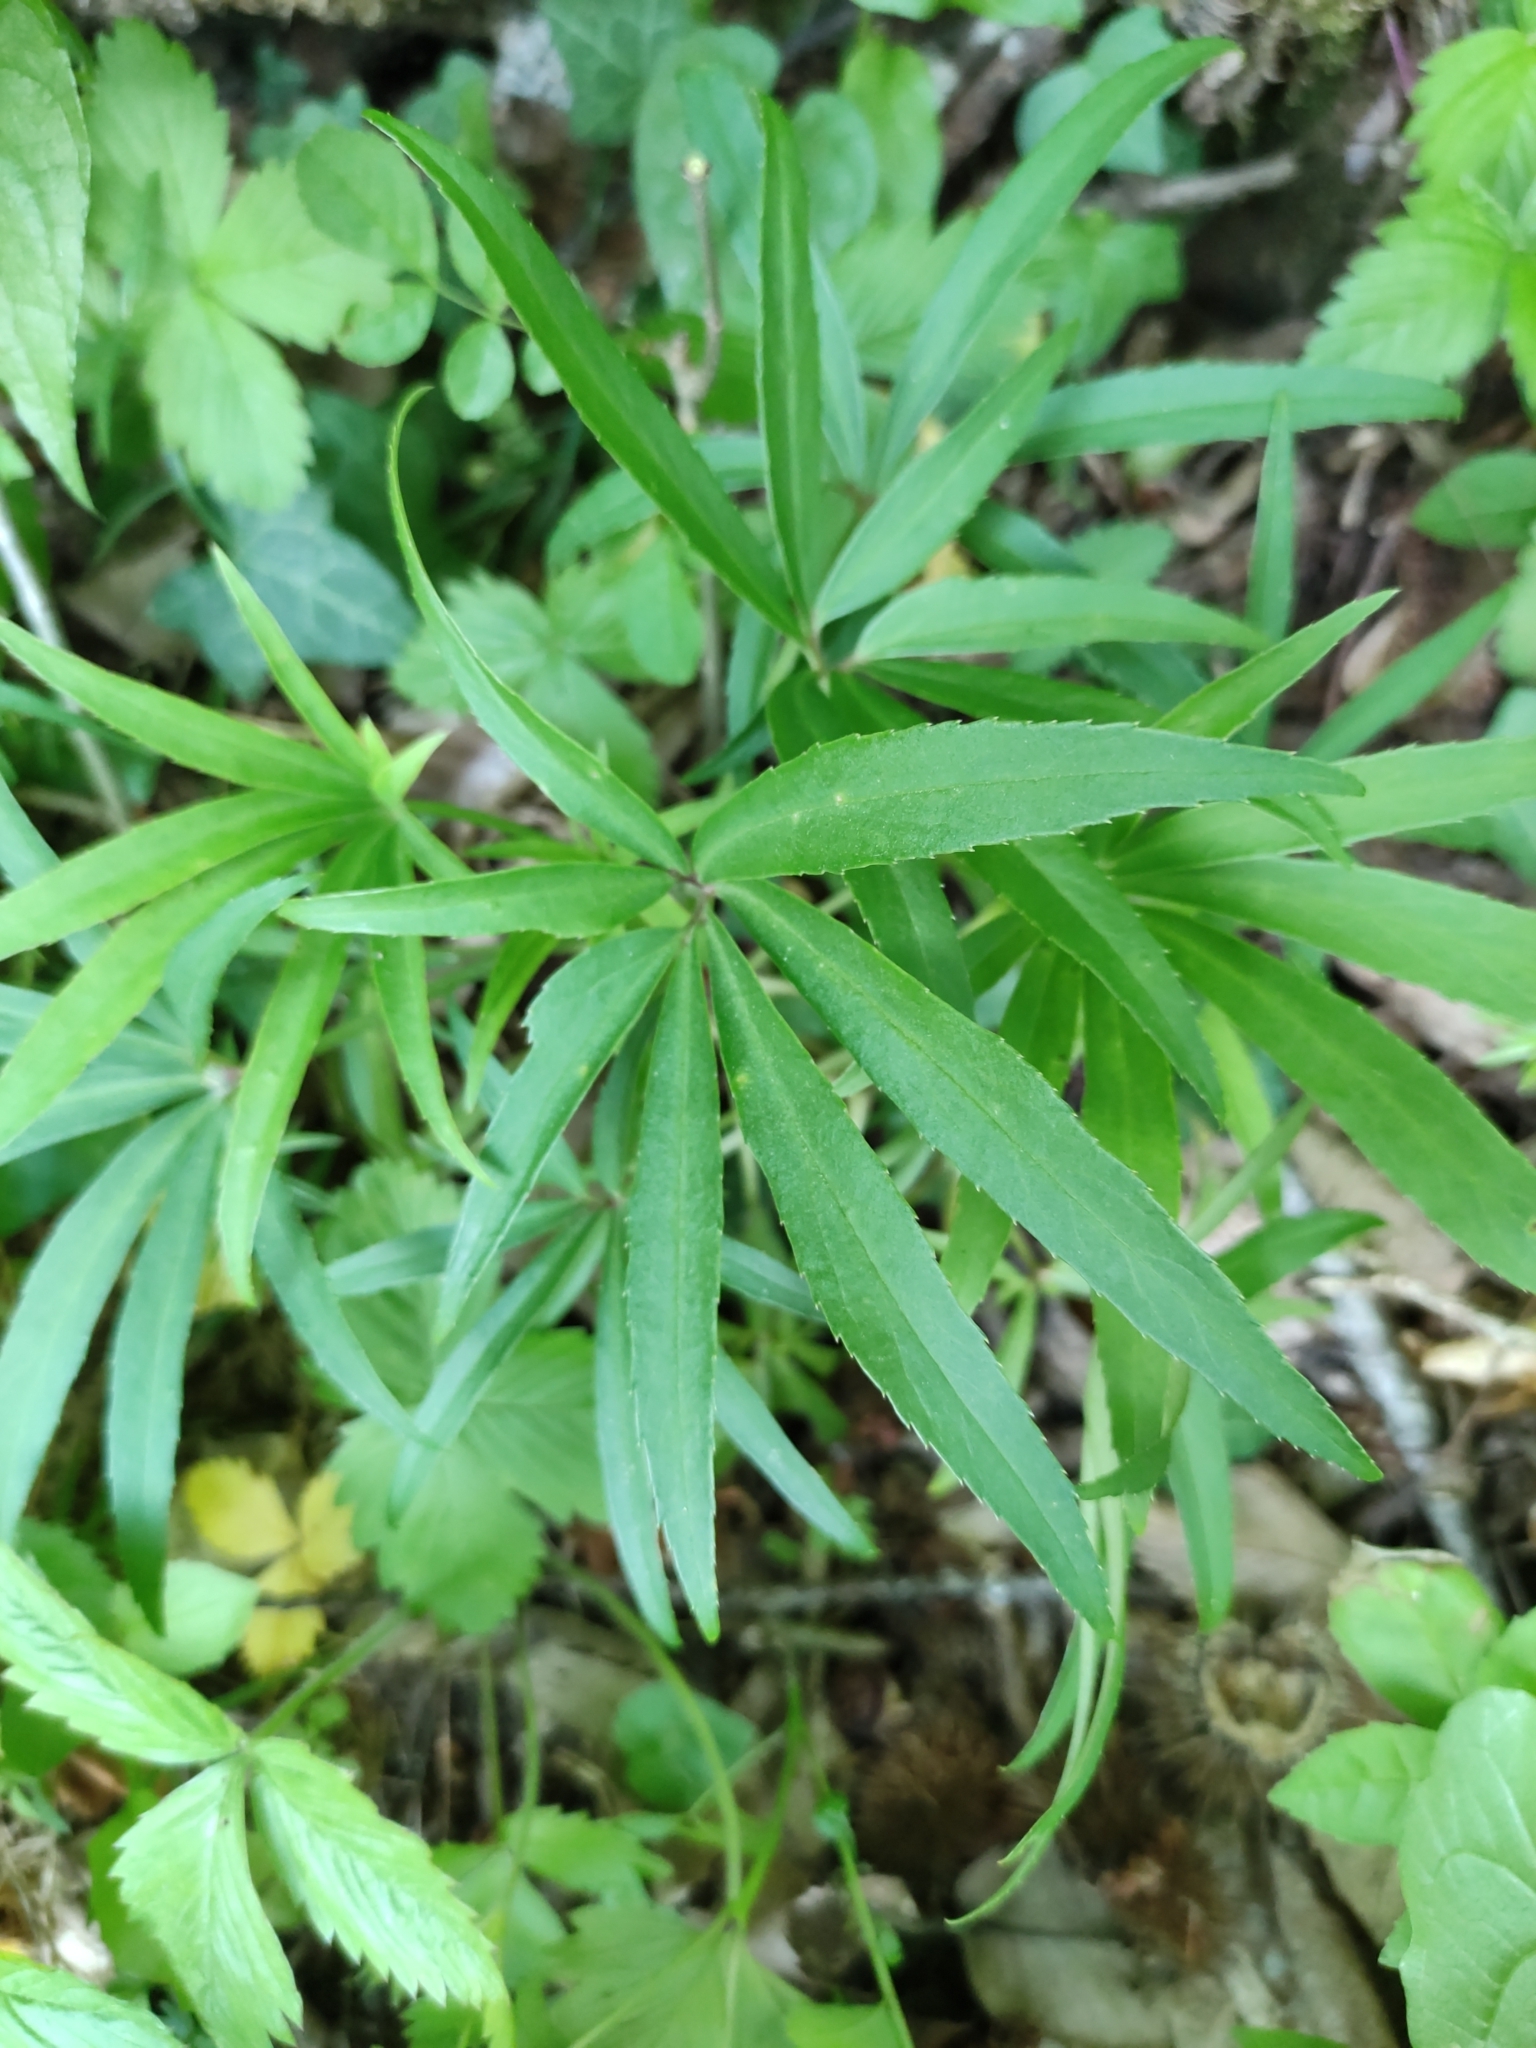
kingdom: Plantae
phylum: Tracheophyta
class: Magnoliopsida
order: Ranunculales
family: Ranunculaceae
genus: Helleborus
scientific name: Helleborus foetidus
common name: Stinking hellebore
